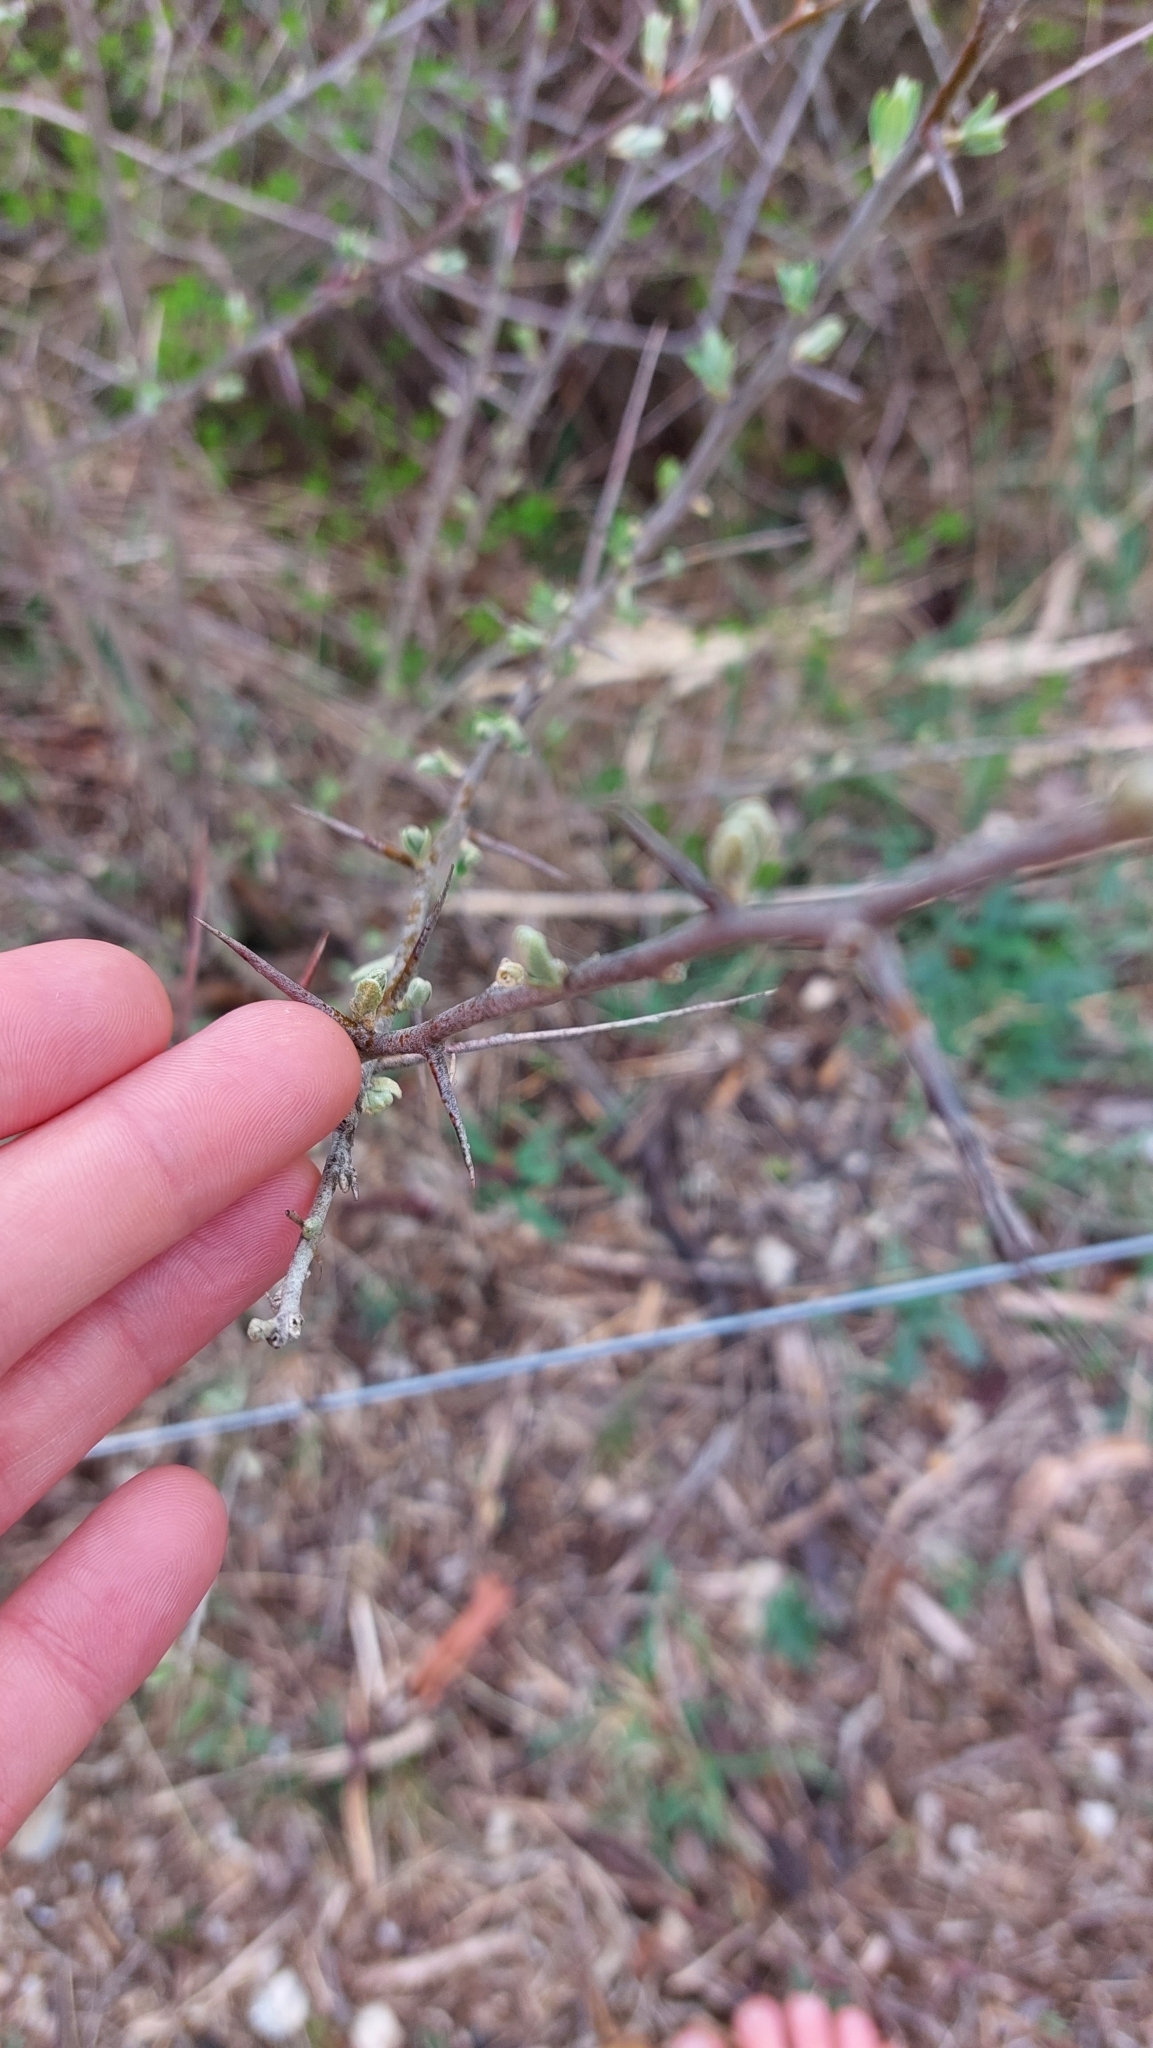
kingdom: Plantae
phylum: Tracheophyta
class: Magnoliopsida
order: Rosales
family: Rosaceae
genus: Prunus
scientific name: Prunus spinosa
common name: Blackthorn
